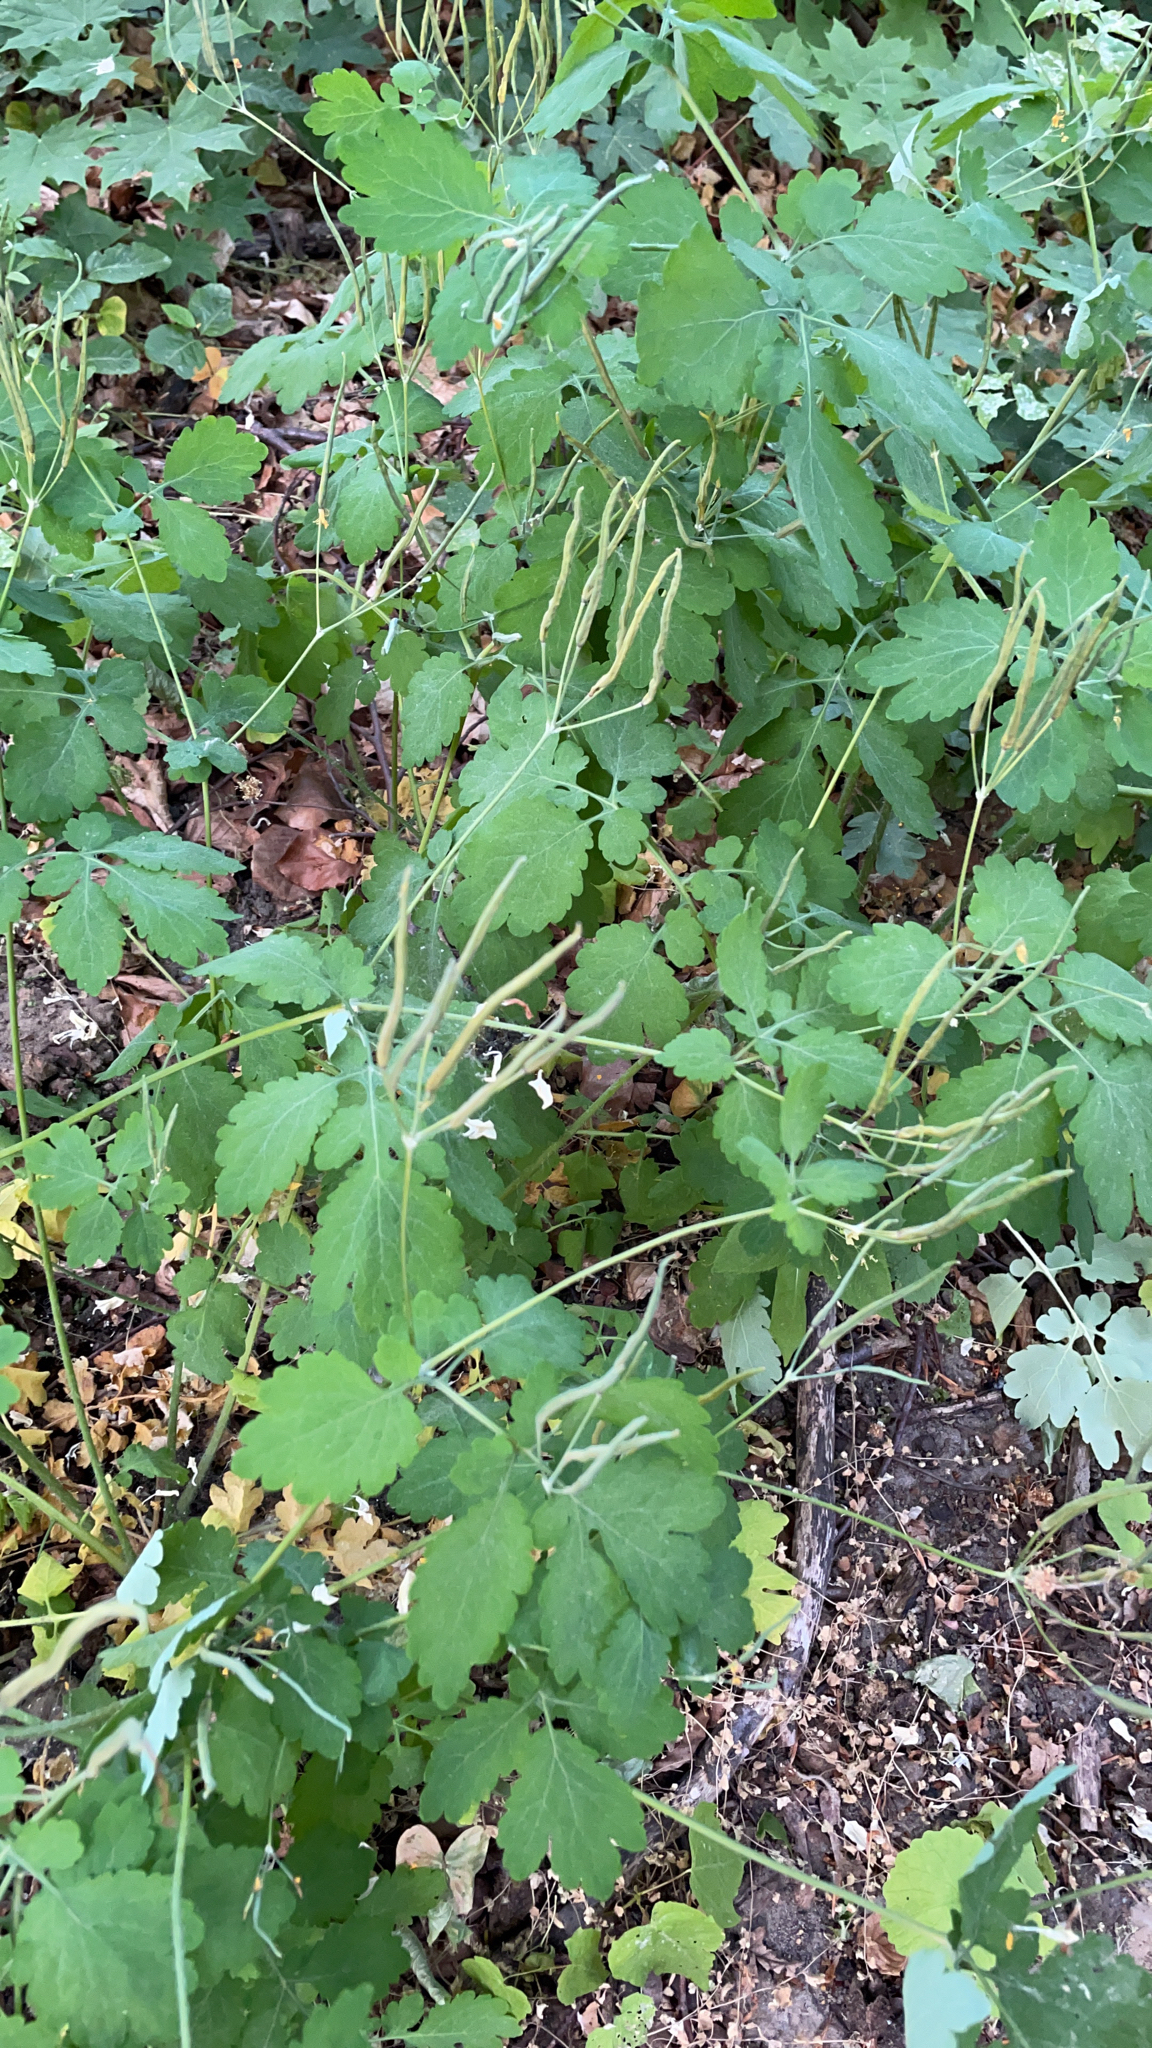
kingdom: Plantae
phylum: Tracheophyta
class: Magnoliopsida
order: Ranunculales
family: Papaveraceae
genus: Chelidonium
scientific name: Chelidonium majus
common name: Greater celandine
